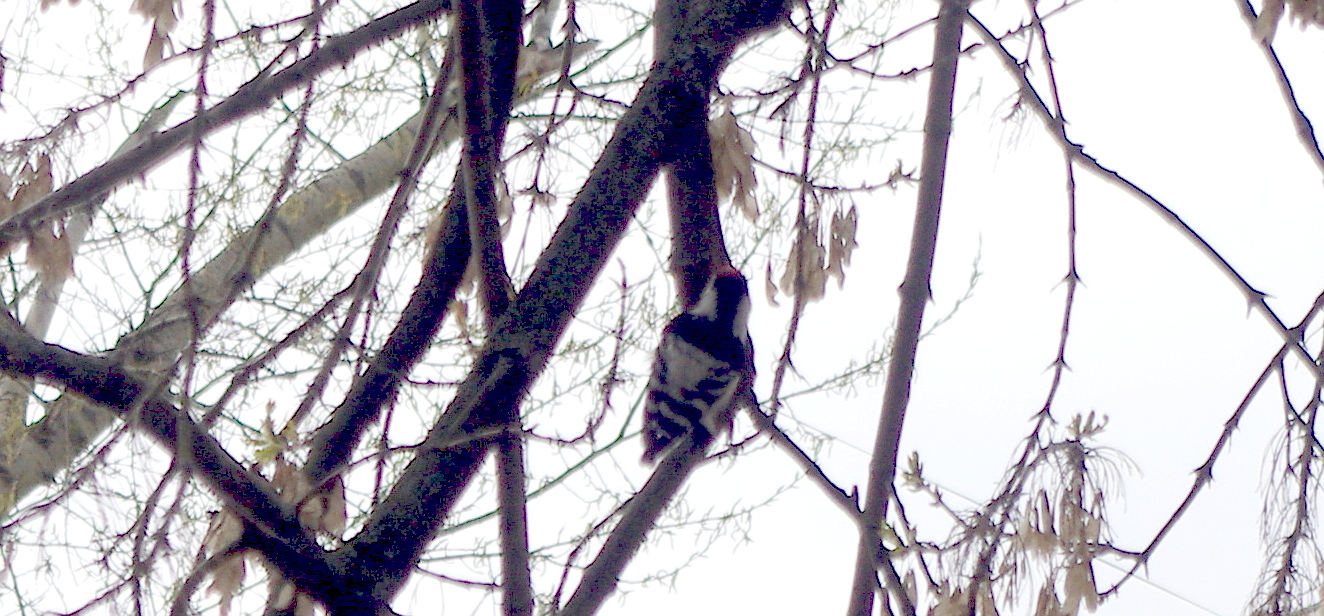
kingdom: Animalia
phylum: Chordata
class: Aves
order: Piciformes
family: Picidae
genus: Dryobates
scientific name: Dryobates minor
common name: Lesser spotted woodpecker
